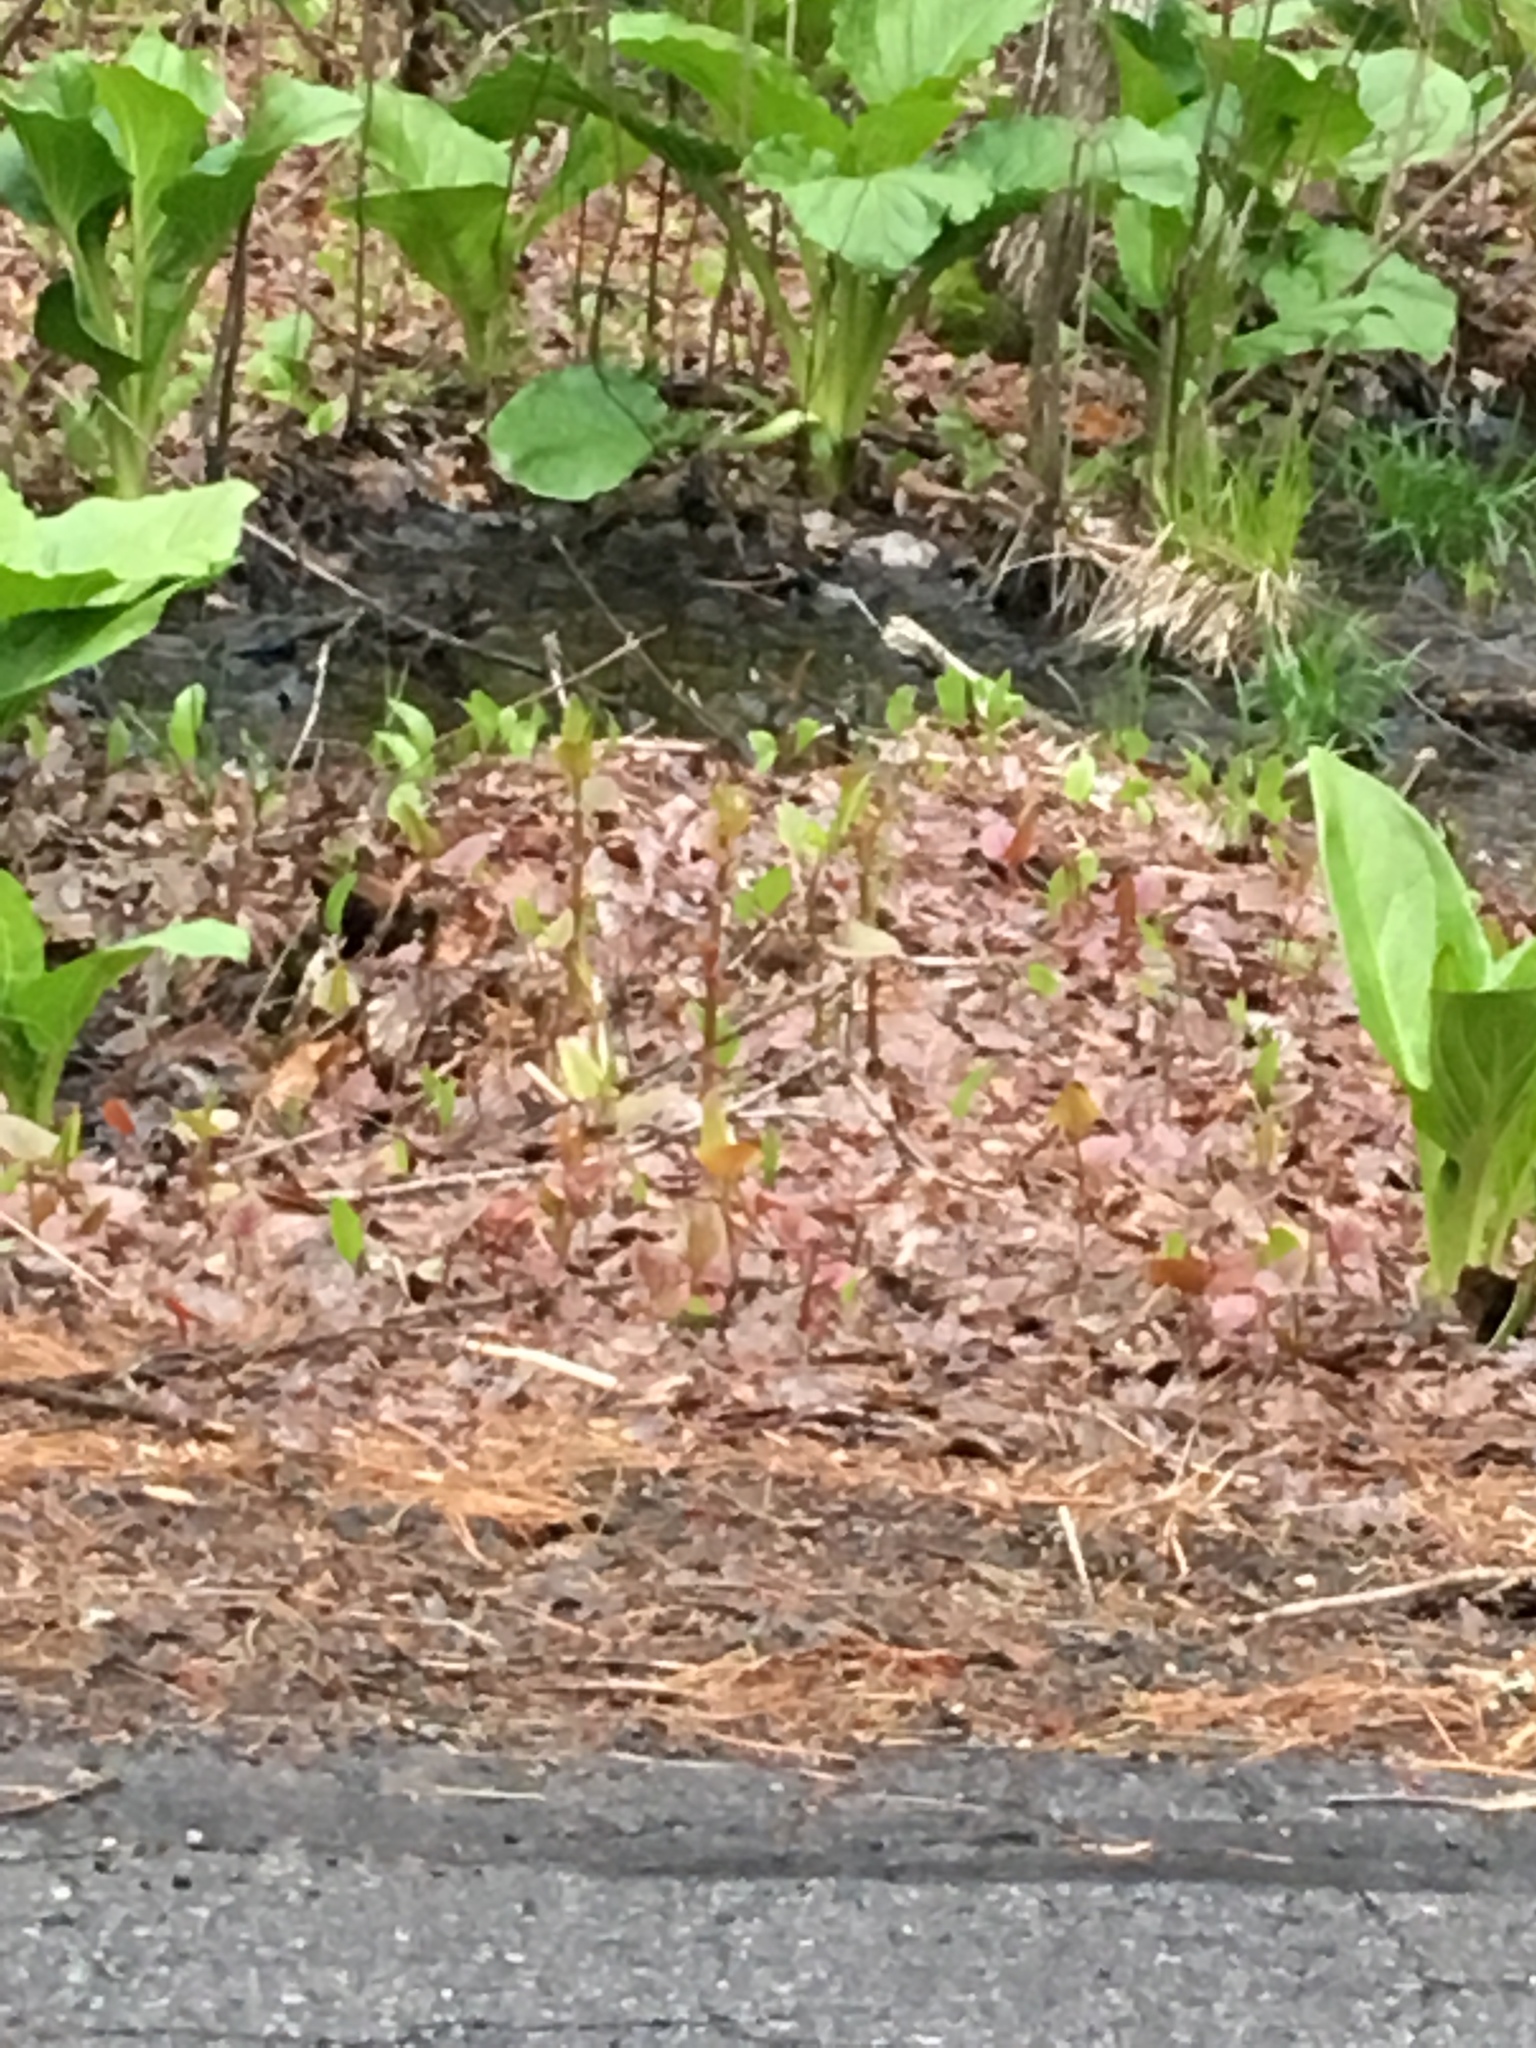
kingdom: Plantae
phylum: Tracheophyta
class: Magnoliopsida
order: Caryophyllales
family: Polygonaceae
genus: Reynoutria
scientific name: Reynoutria japonica
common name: Japanese knotweed
